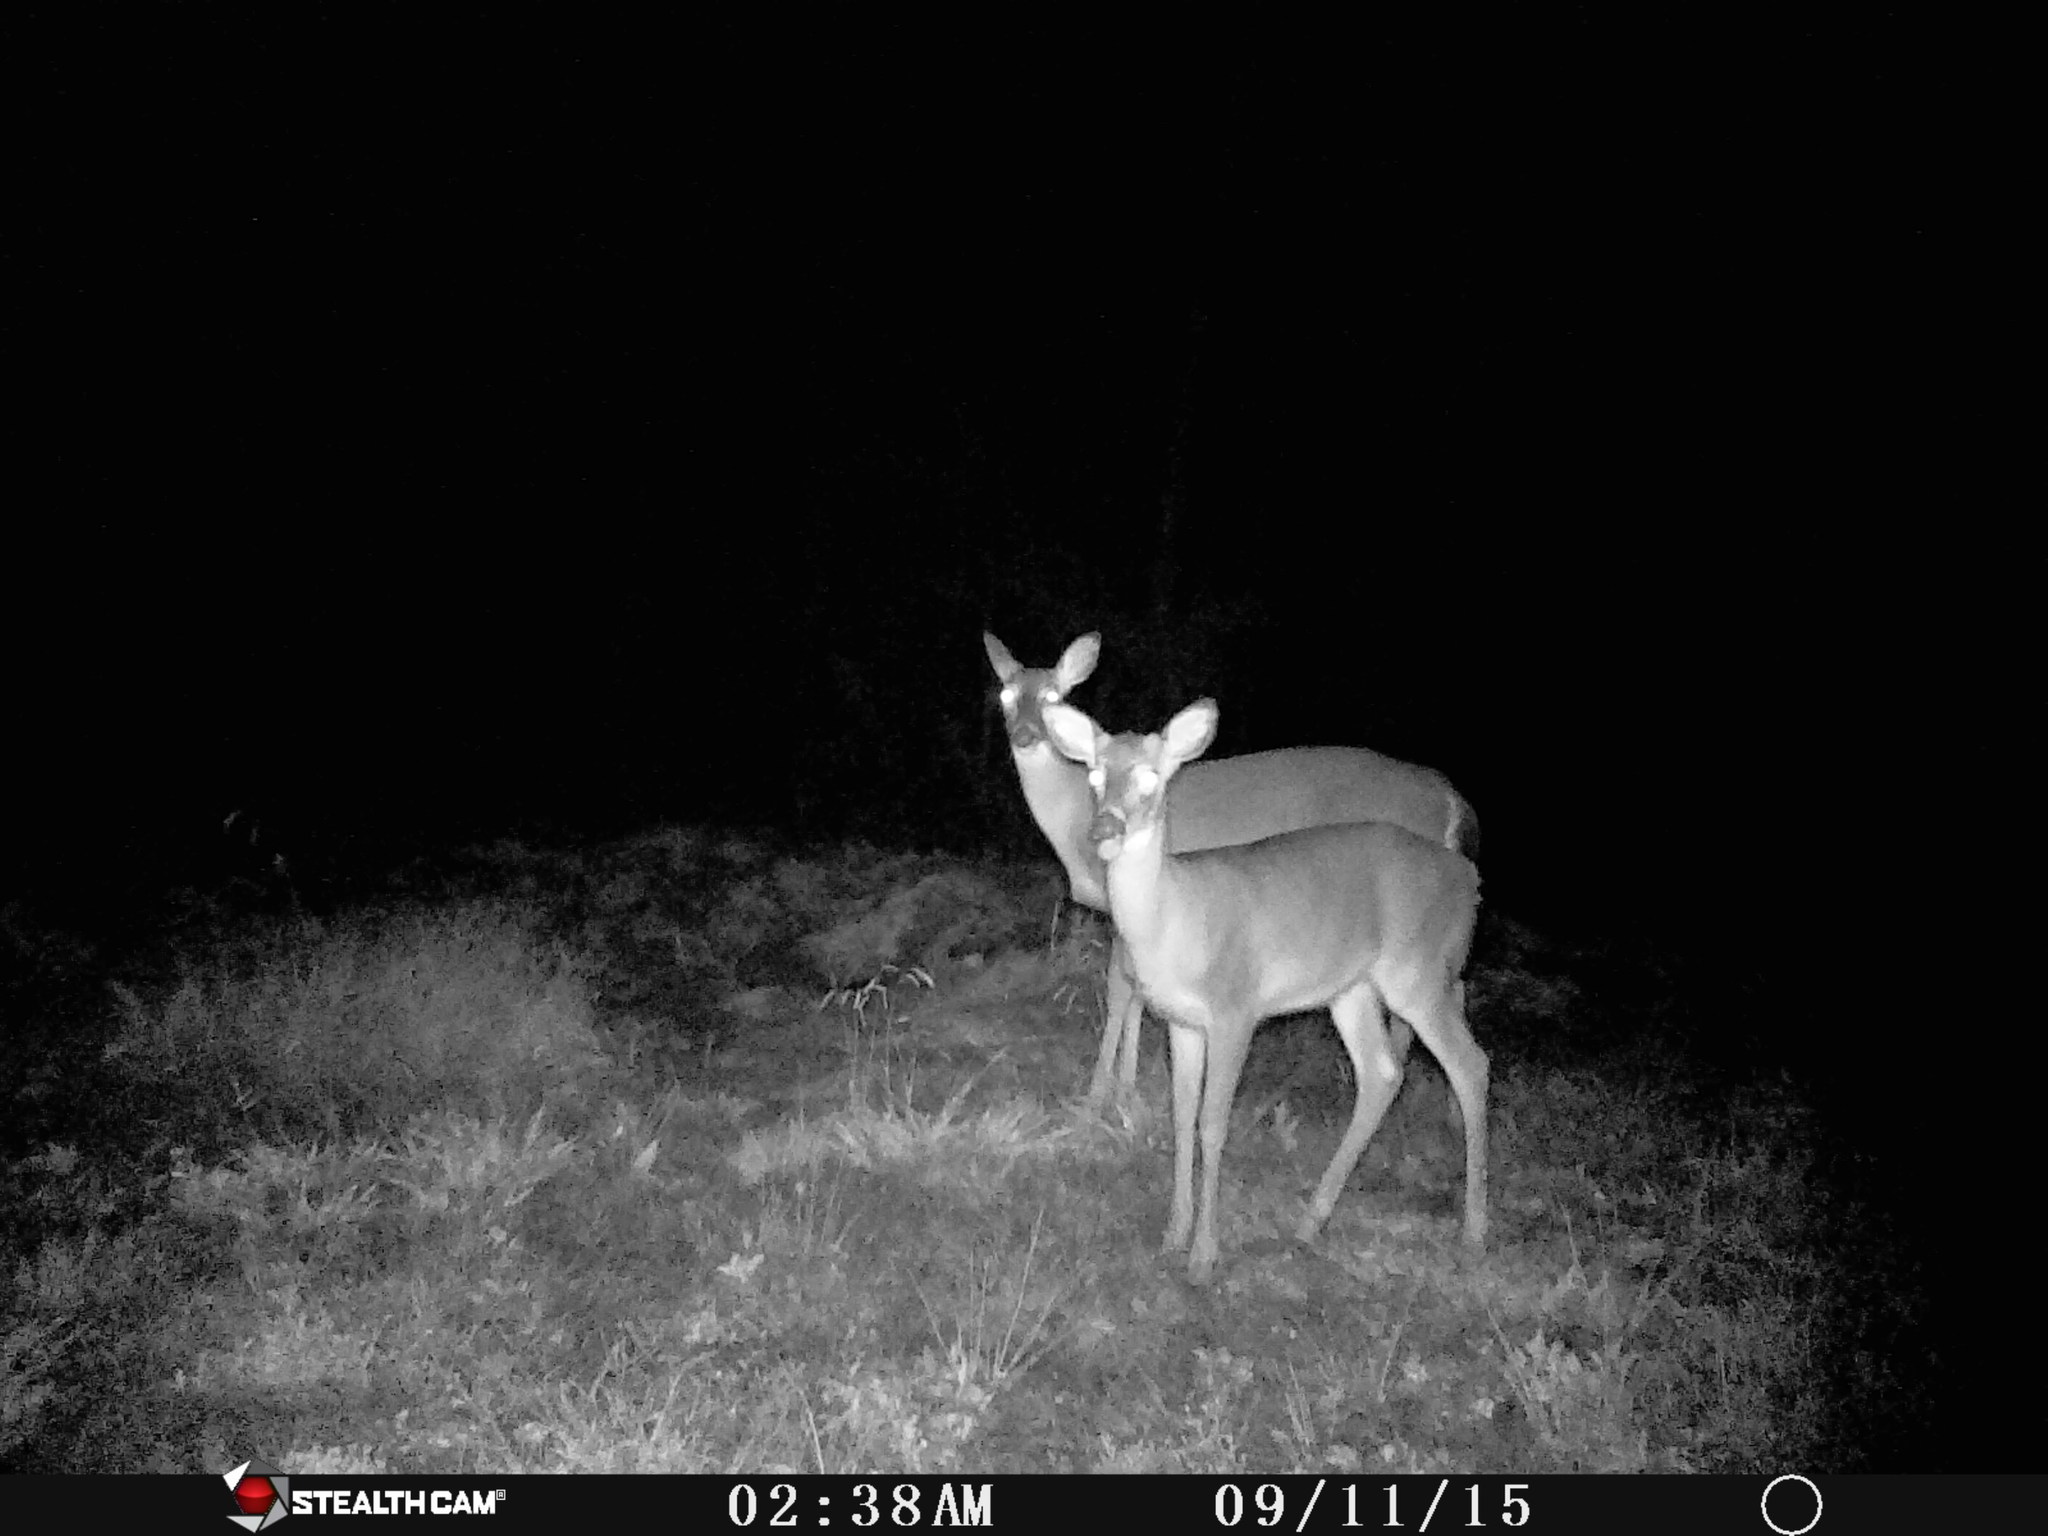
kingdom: Animalia
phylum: Chordata
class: Mammalia
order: Artiodactyla
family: Cervidae
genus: Odocoileus
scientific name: Odocoileus virginianus
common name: White-tailed deer
